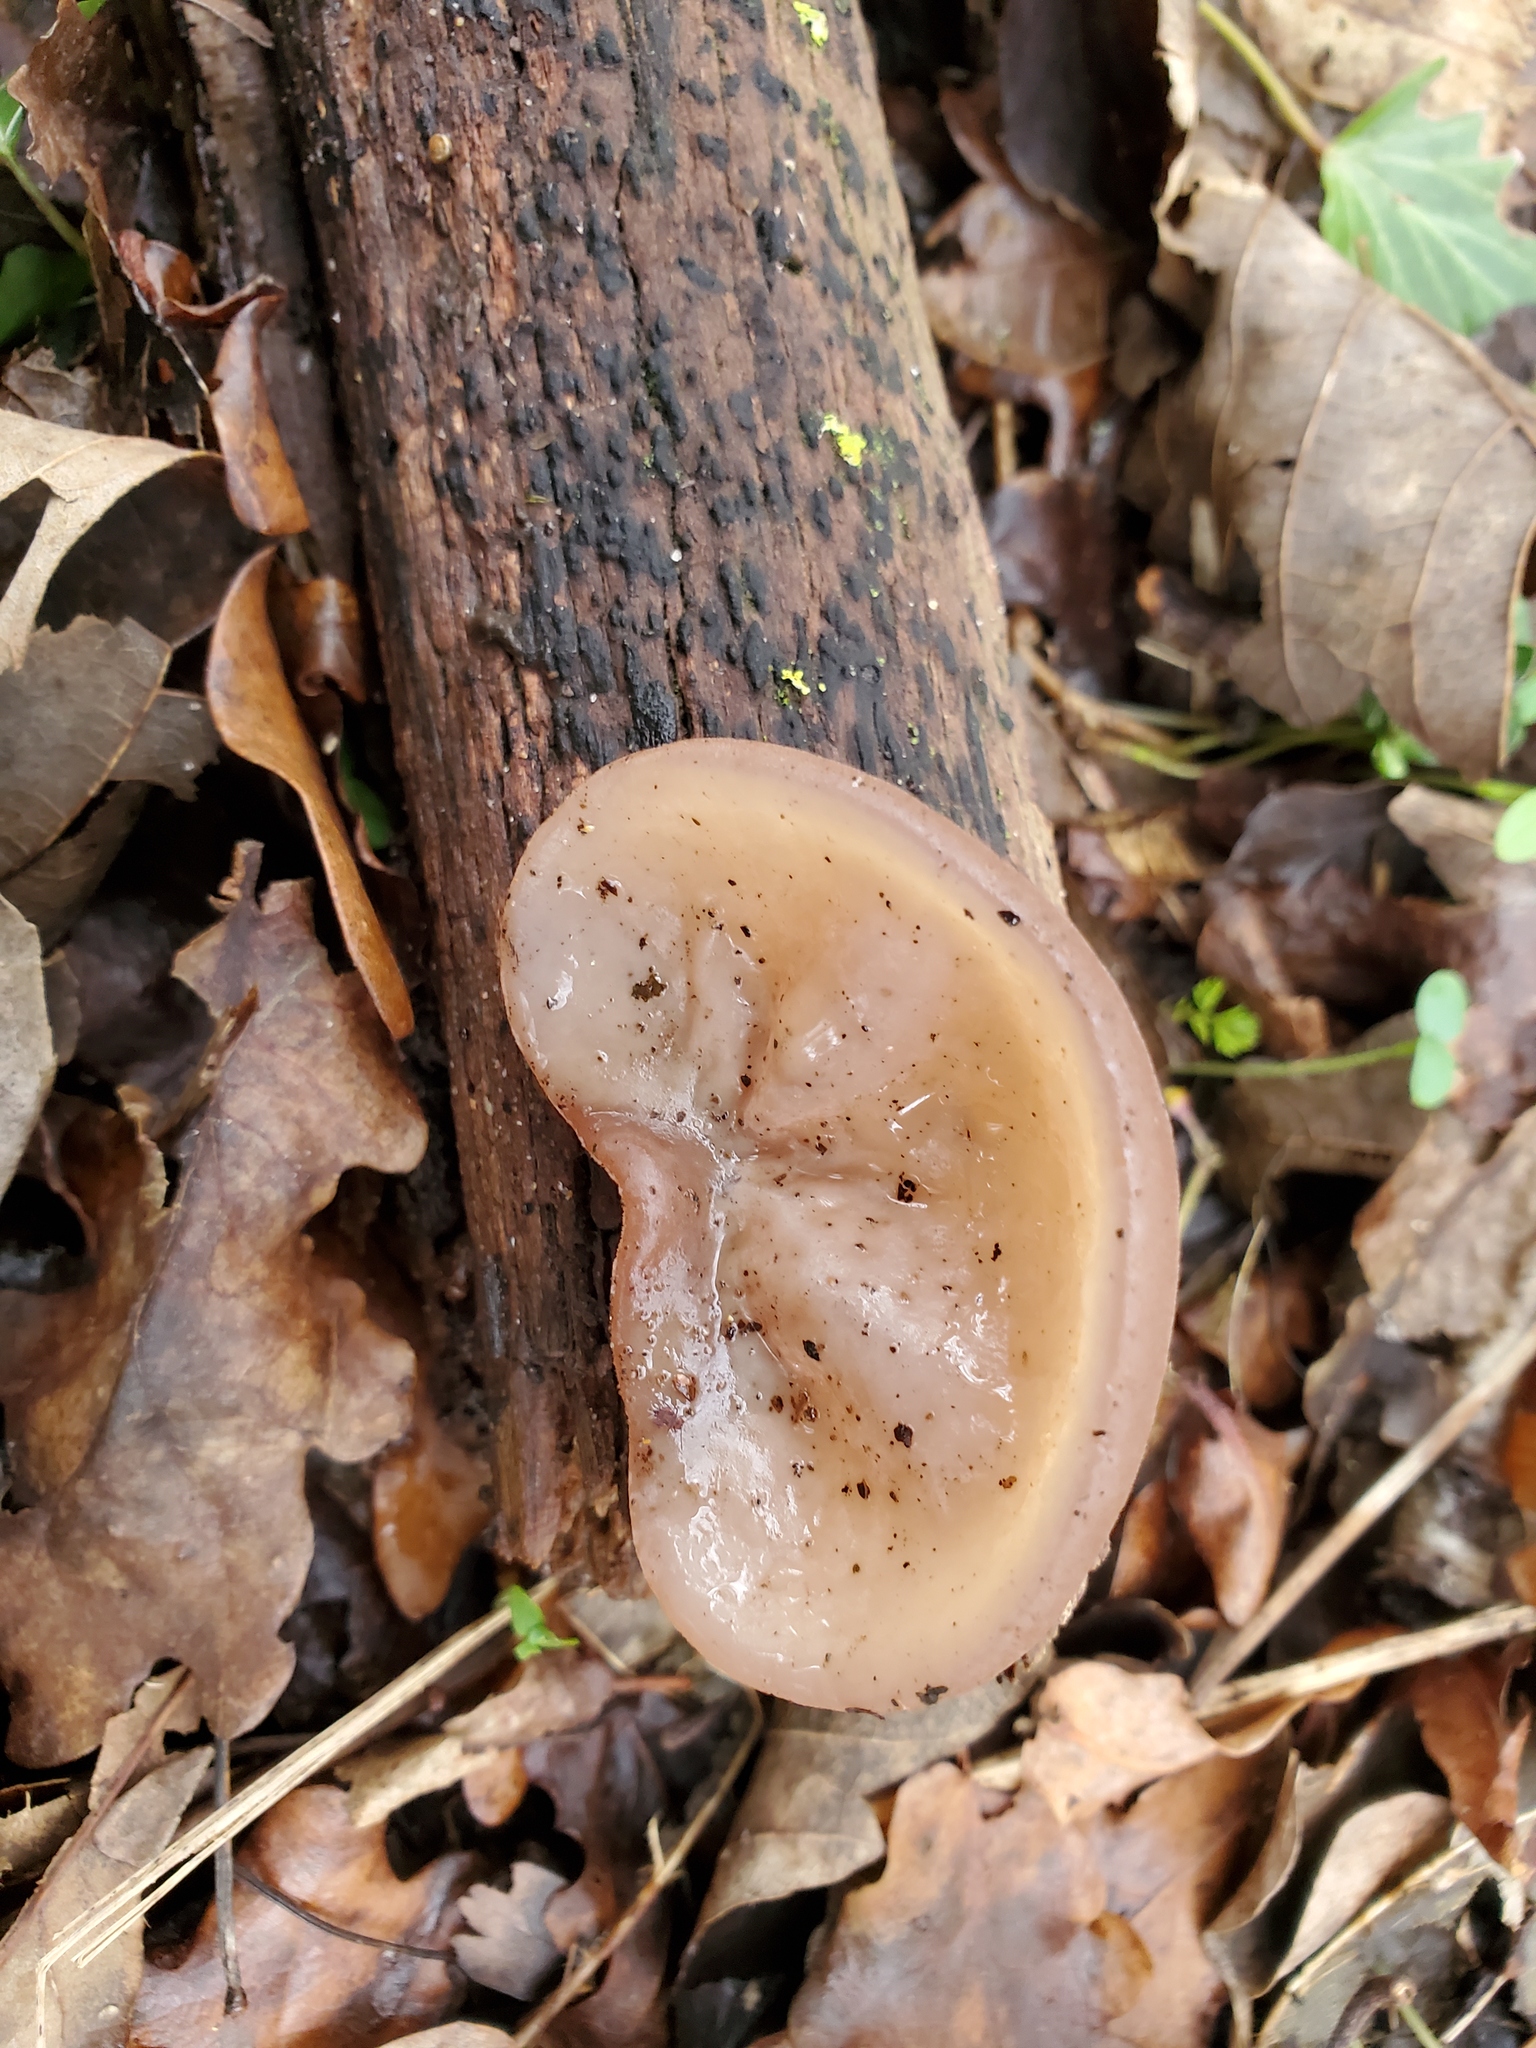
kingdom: Fungi
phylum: Basidiomycota
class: Agaricomycetes
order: Auriculariales
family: Auriculariaceae
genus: Auricularia
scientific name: Auricularia auricula-judae
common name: Jelly ear
